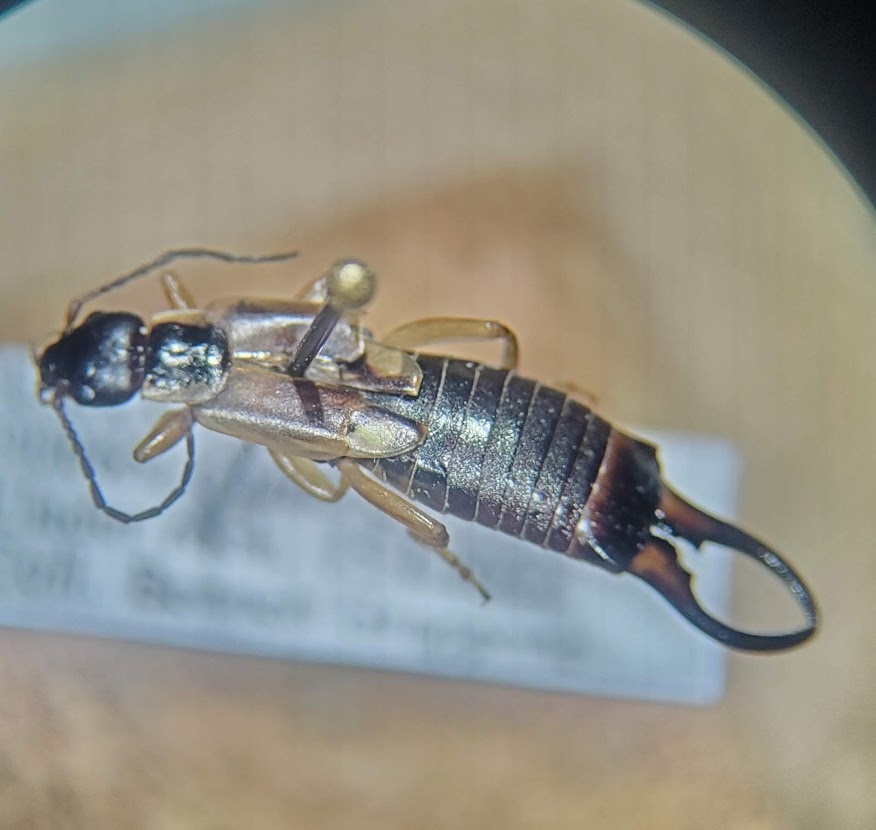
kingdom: Animalia
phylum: Arthropoda
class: Insecta
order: Dermaptera
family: Forficulidae
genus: Forficula
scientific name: Forficula
